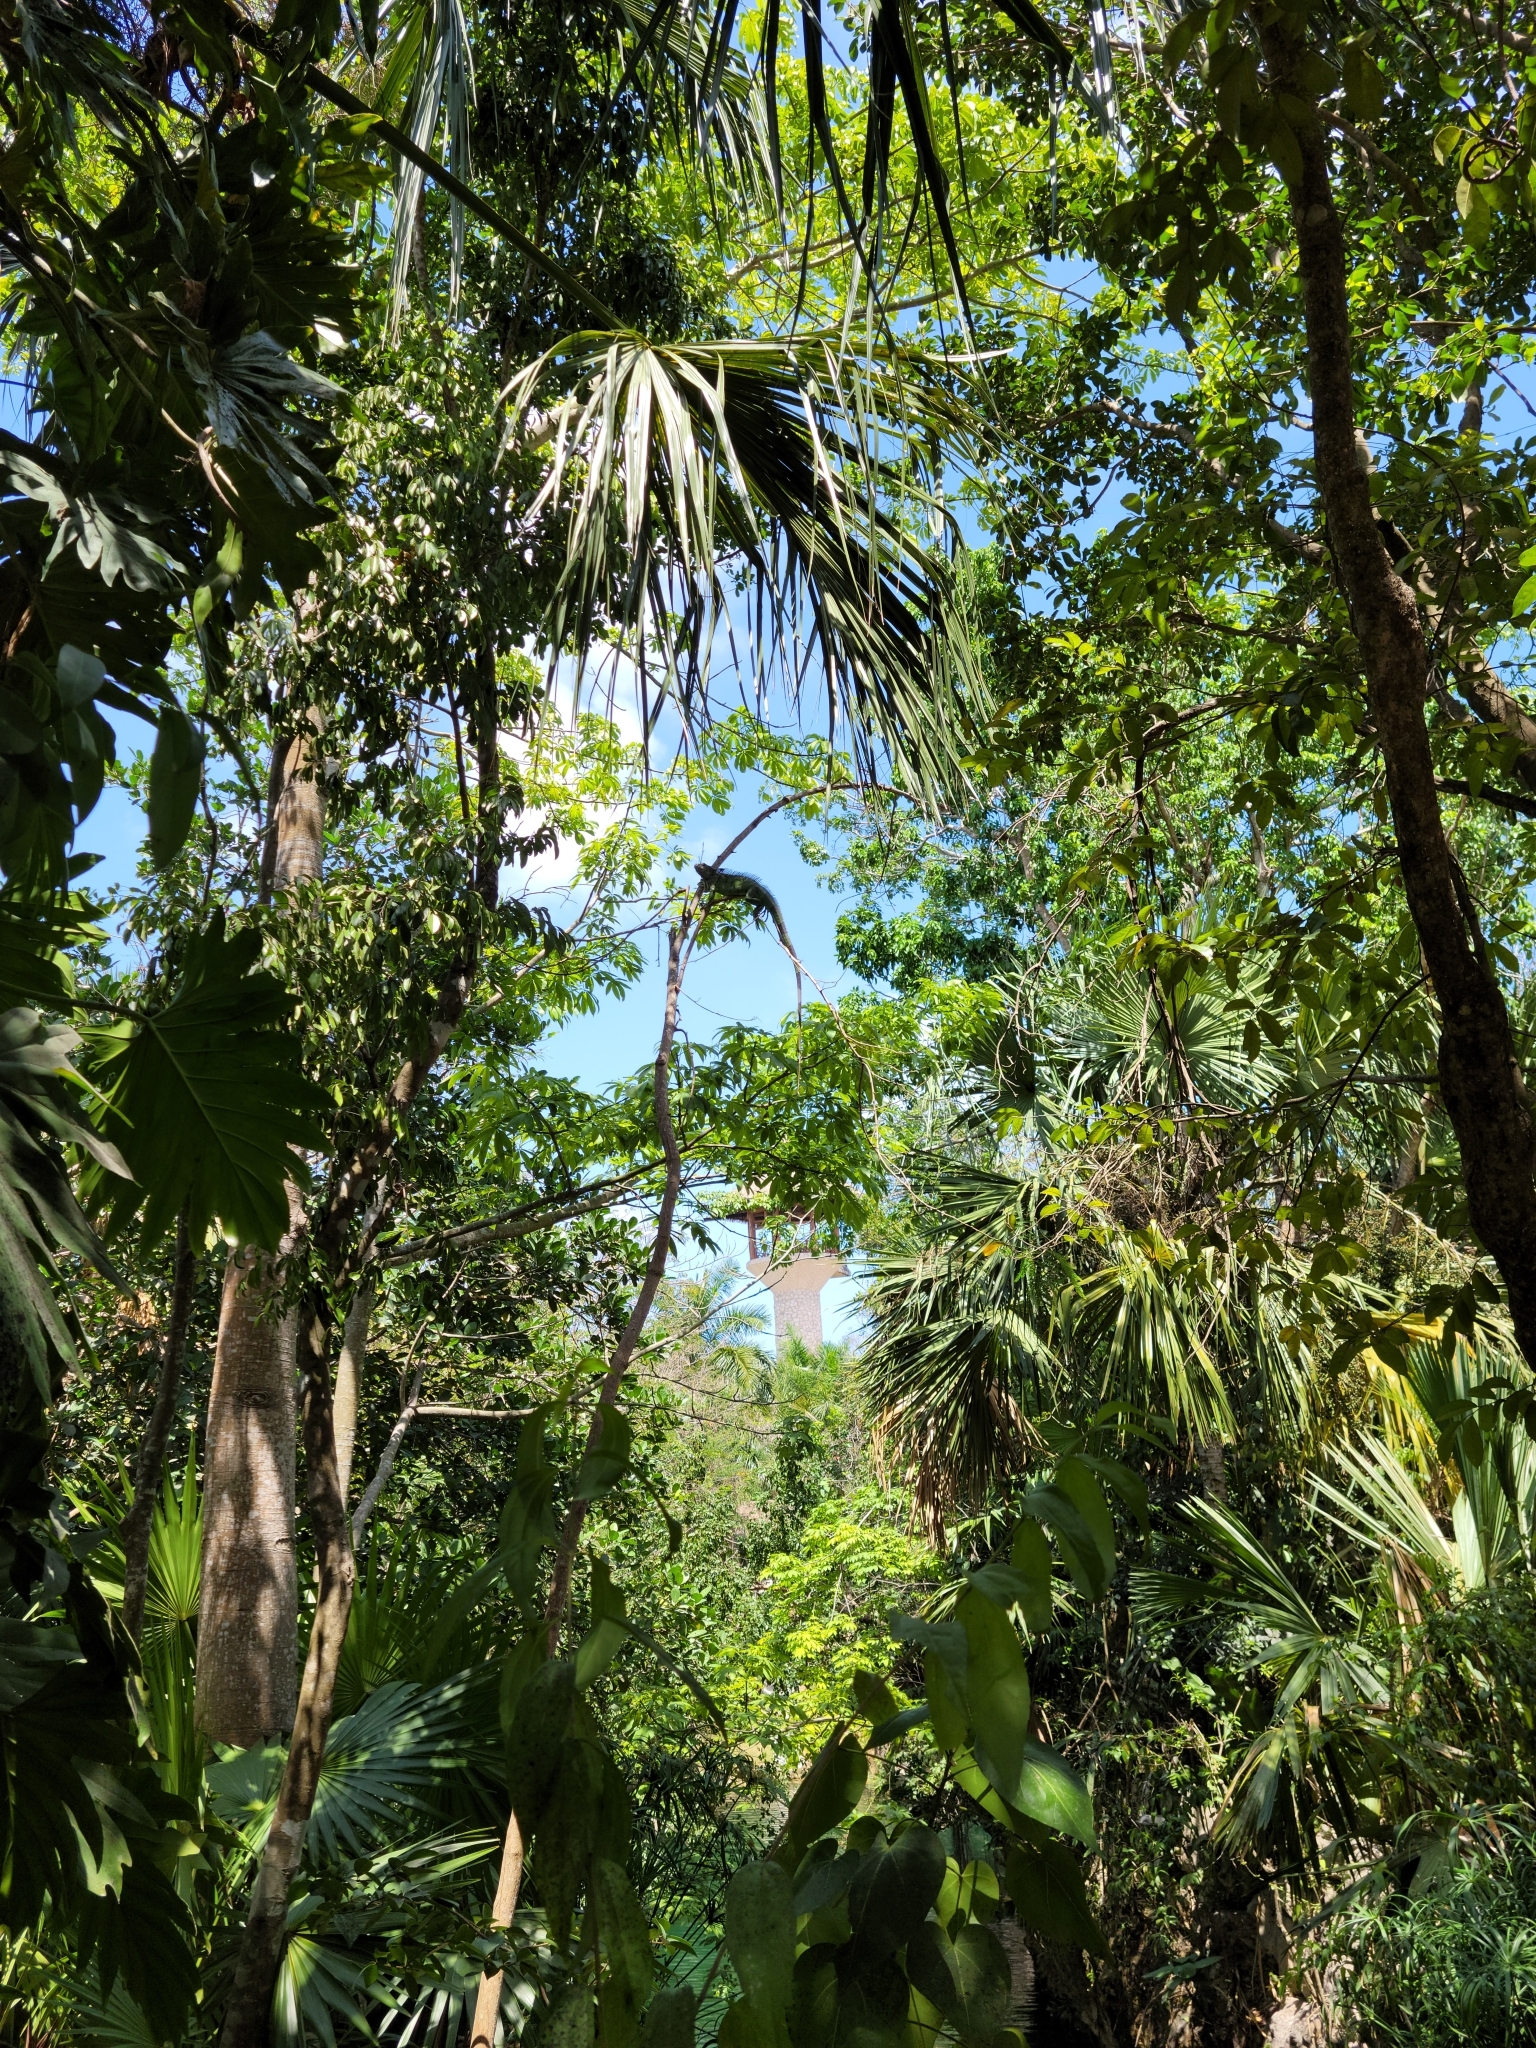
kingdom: Animalia
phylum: Chordata
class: Squamata
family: Iguanidae
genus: Iguana
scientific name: Iguana iguana
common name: Green iguana
